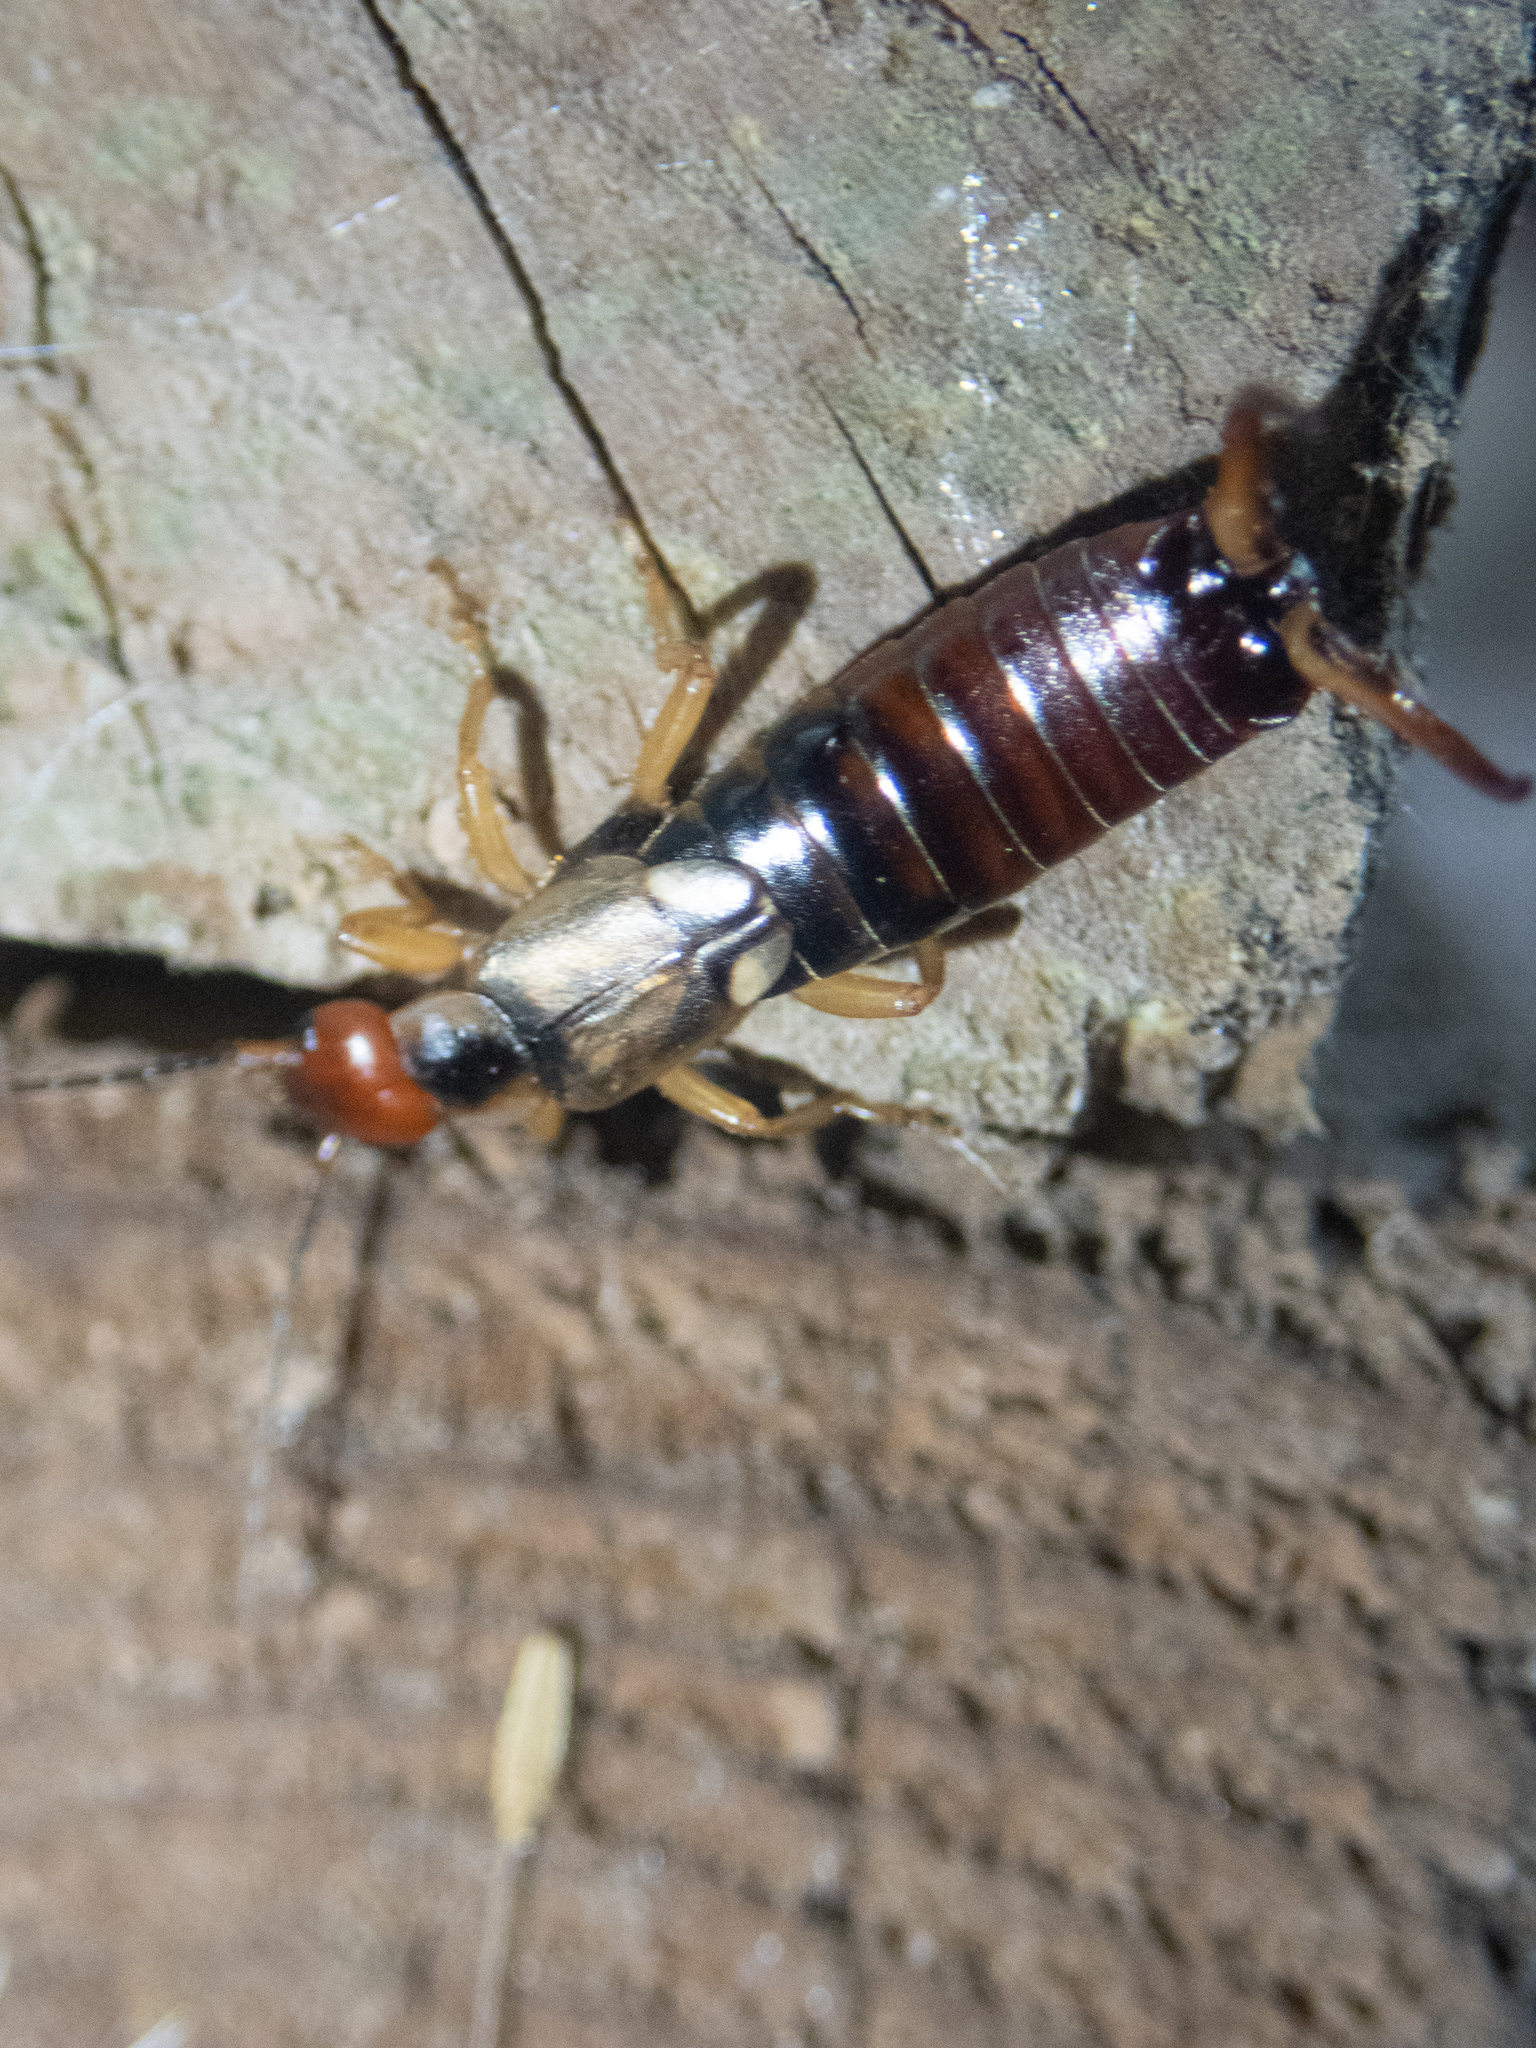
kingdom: Animalia
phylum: Arthropoda
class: Insecta
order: Dermaptera
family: Forficulidae
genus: Forficula
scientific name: Forficula
